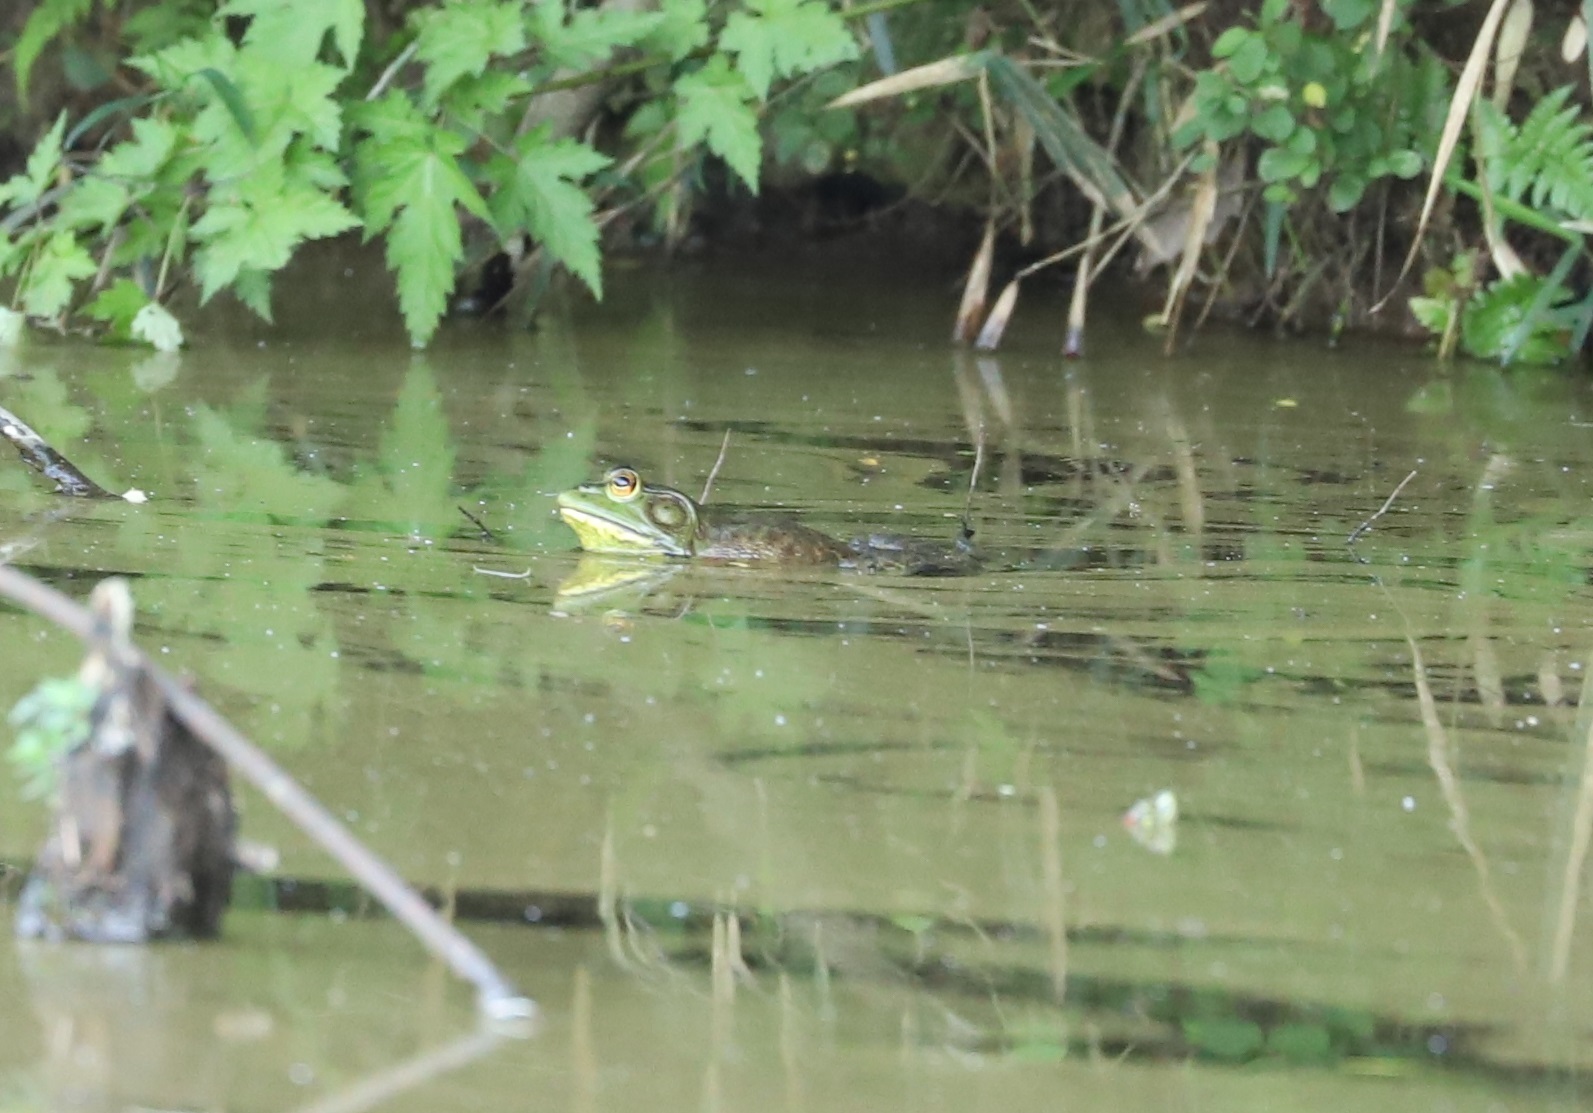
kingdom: Animalia
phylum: Chordata
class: Amphibia
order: Anura
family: Ranidae
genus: Lithobates
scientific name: Lithobates catesbeianus
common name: American bullfrog
